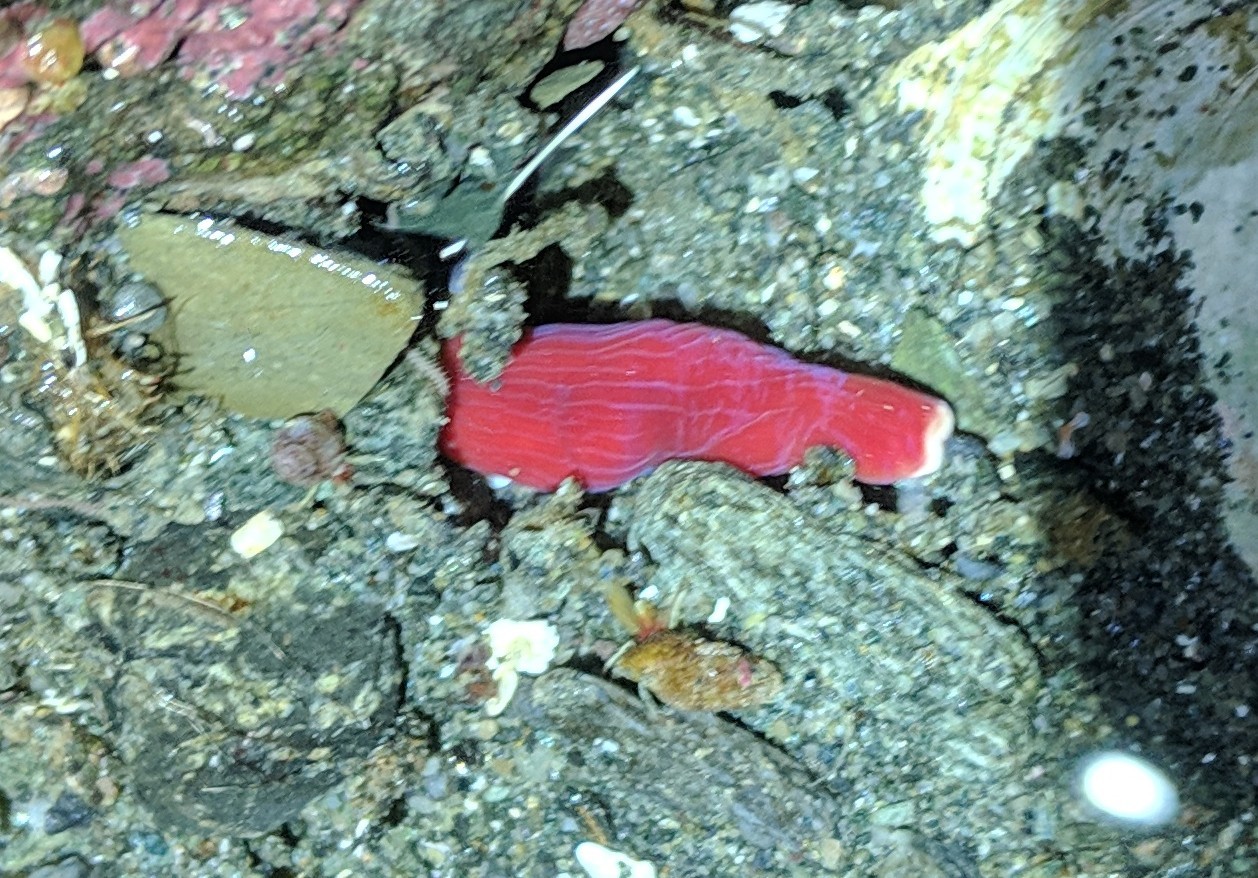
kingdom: Animalia
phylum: Nemertea
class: Pilidiophora
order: Heteronemertea
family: Lineidae
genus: Kulikovia
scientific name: Kulikovia montgomeryi
